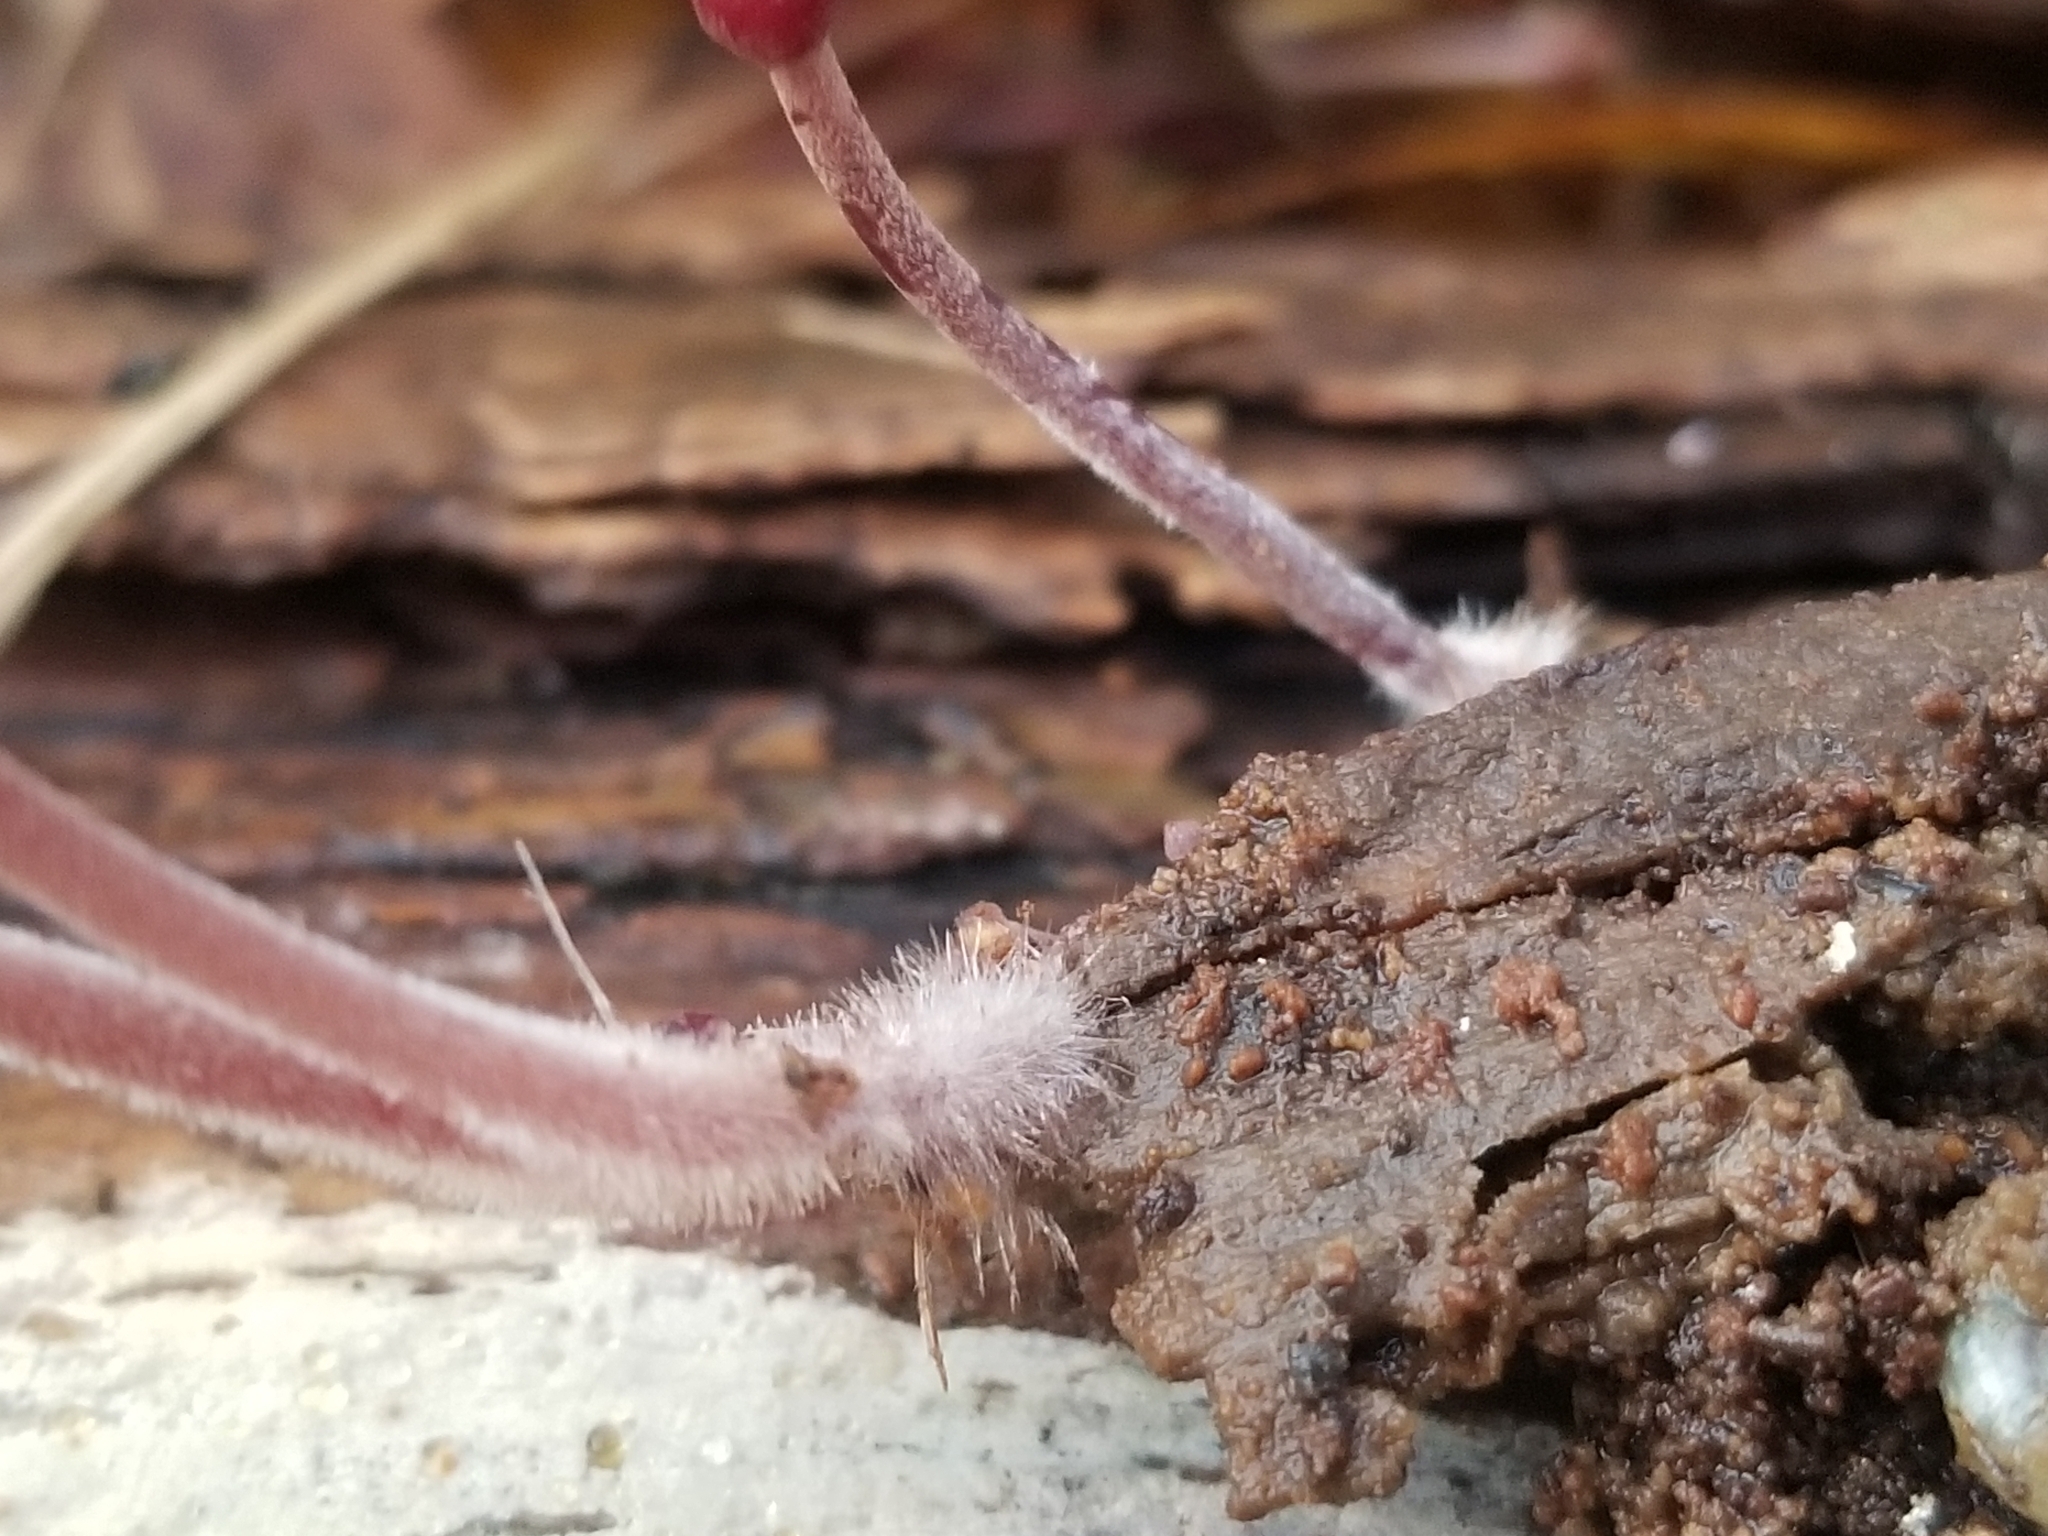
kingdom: Fungi
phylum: Basidiomycota
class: Agaricomycetes
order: Agaricales
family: Mycenaceae
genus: Mycena
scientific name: Mycena haematopus
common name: Burgundydrop bonnet
